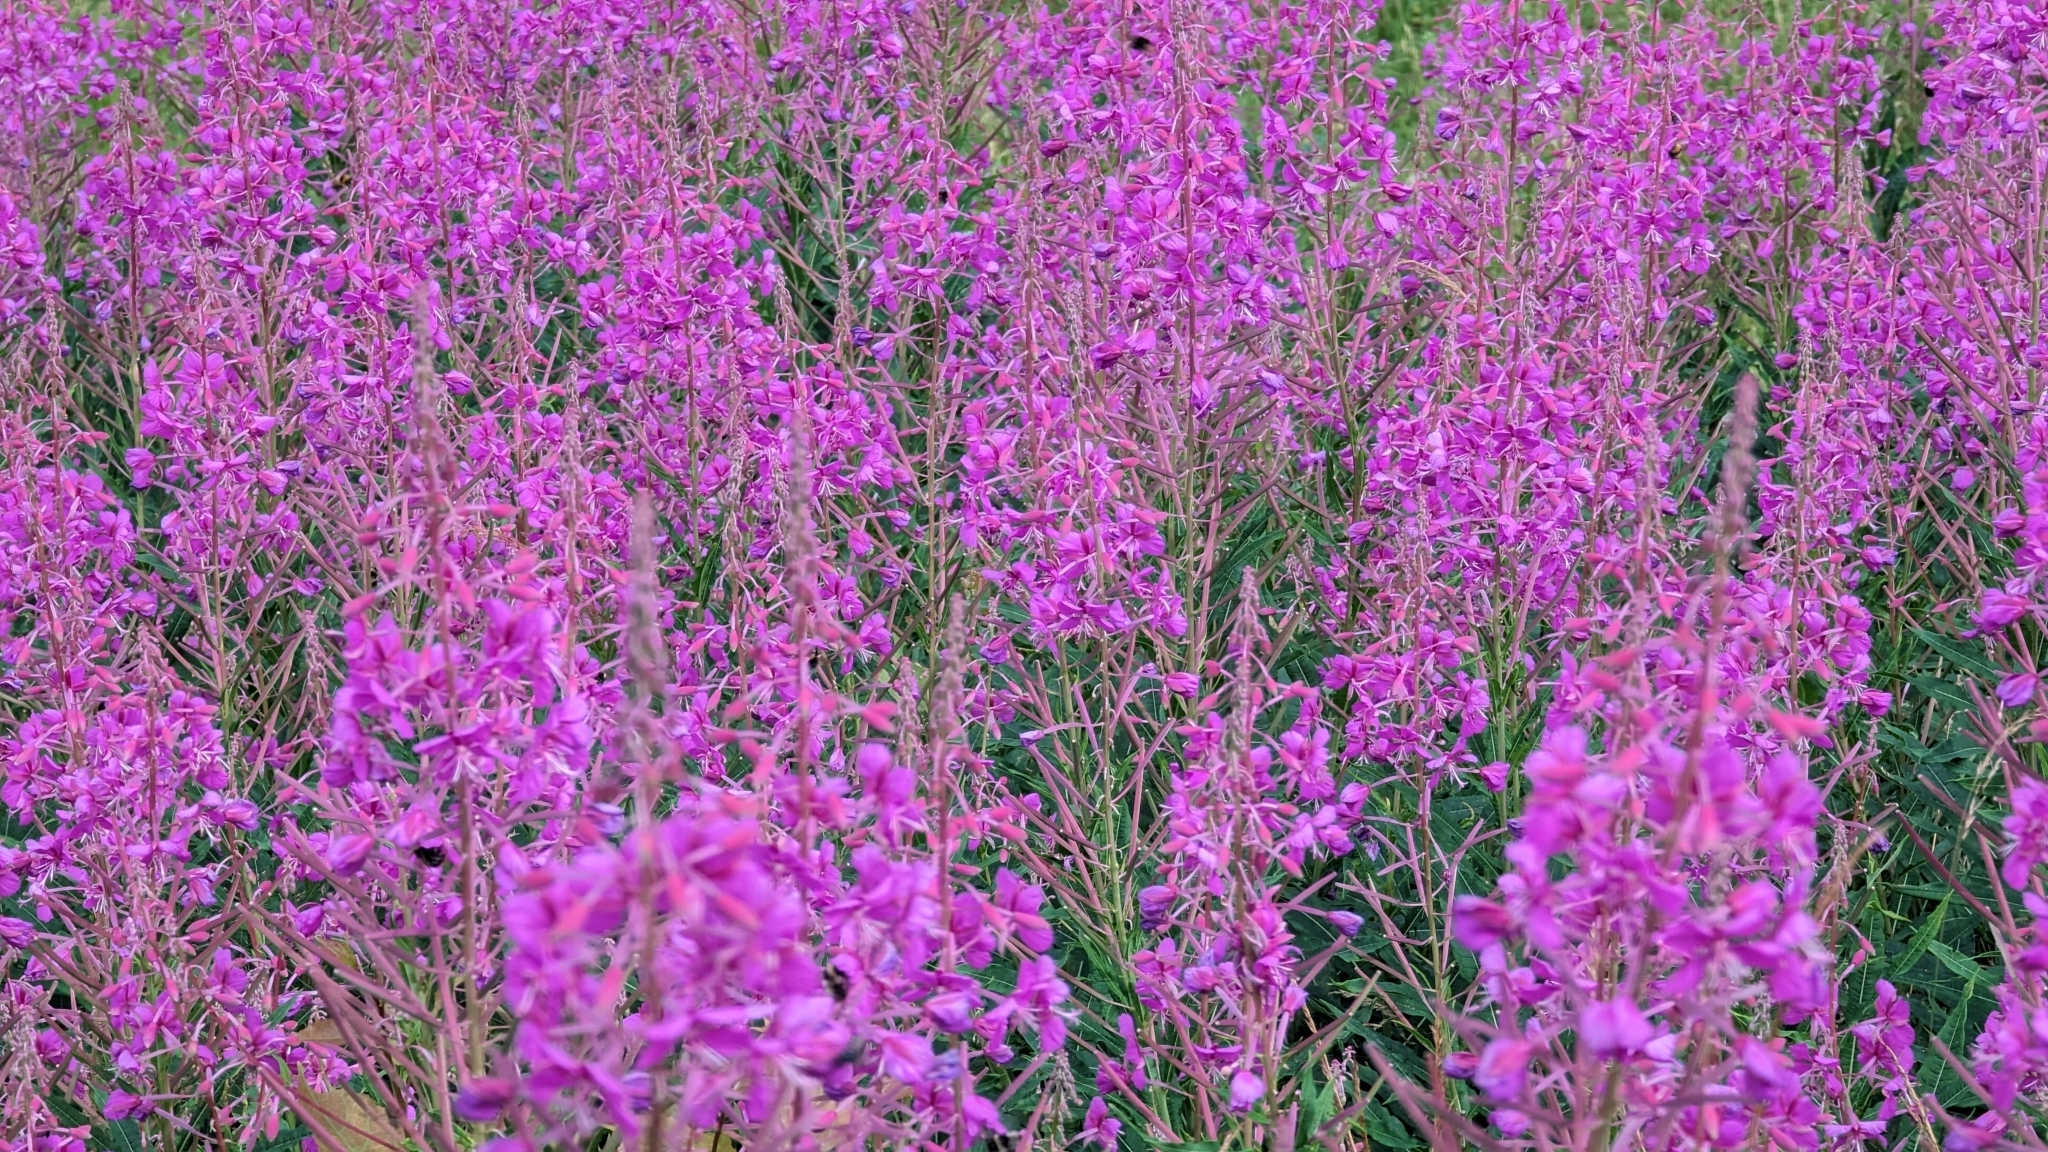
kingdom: Plantae
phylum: Tracheophyta
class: Magnoliopsida
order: Myrtales
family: Onagraceae
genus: Chamaenerion
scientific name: Chamaenerion angustifolium
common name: Fireweed
